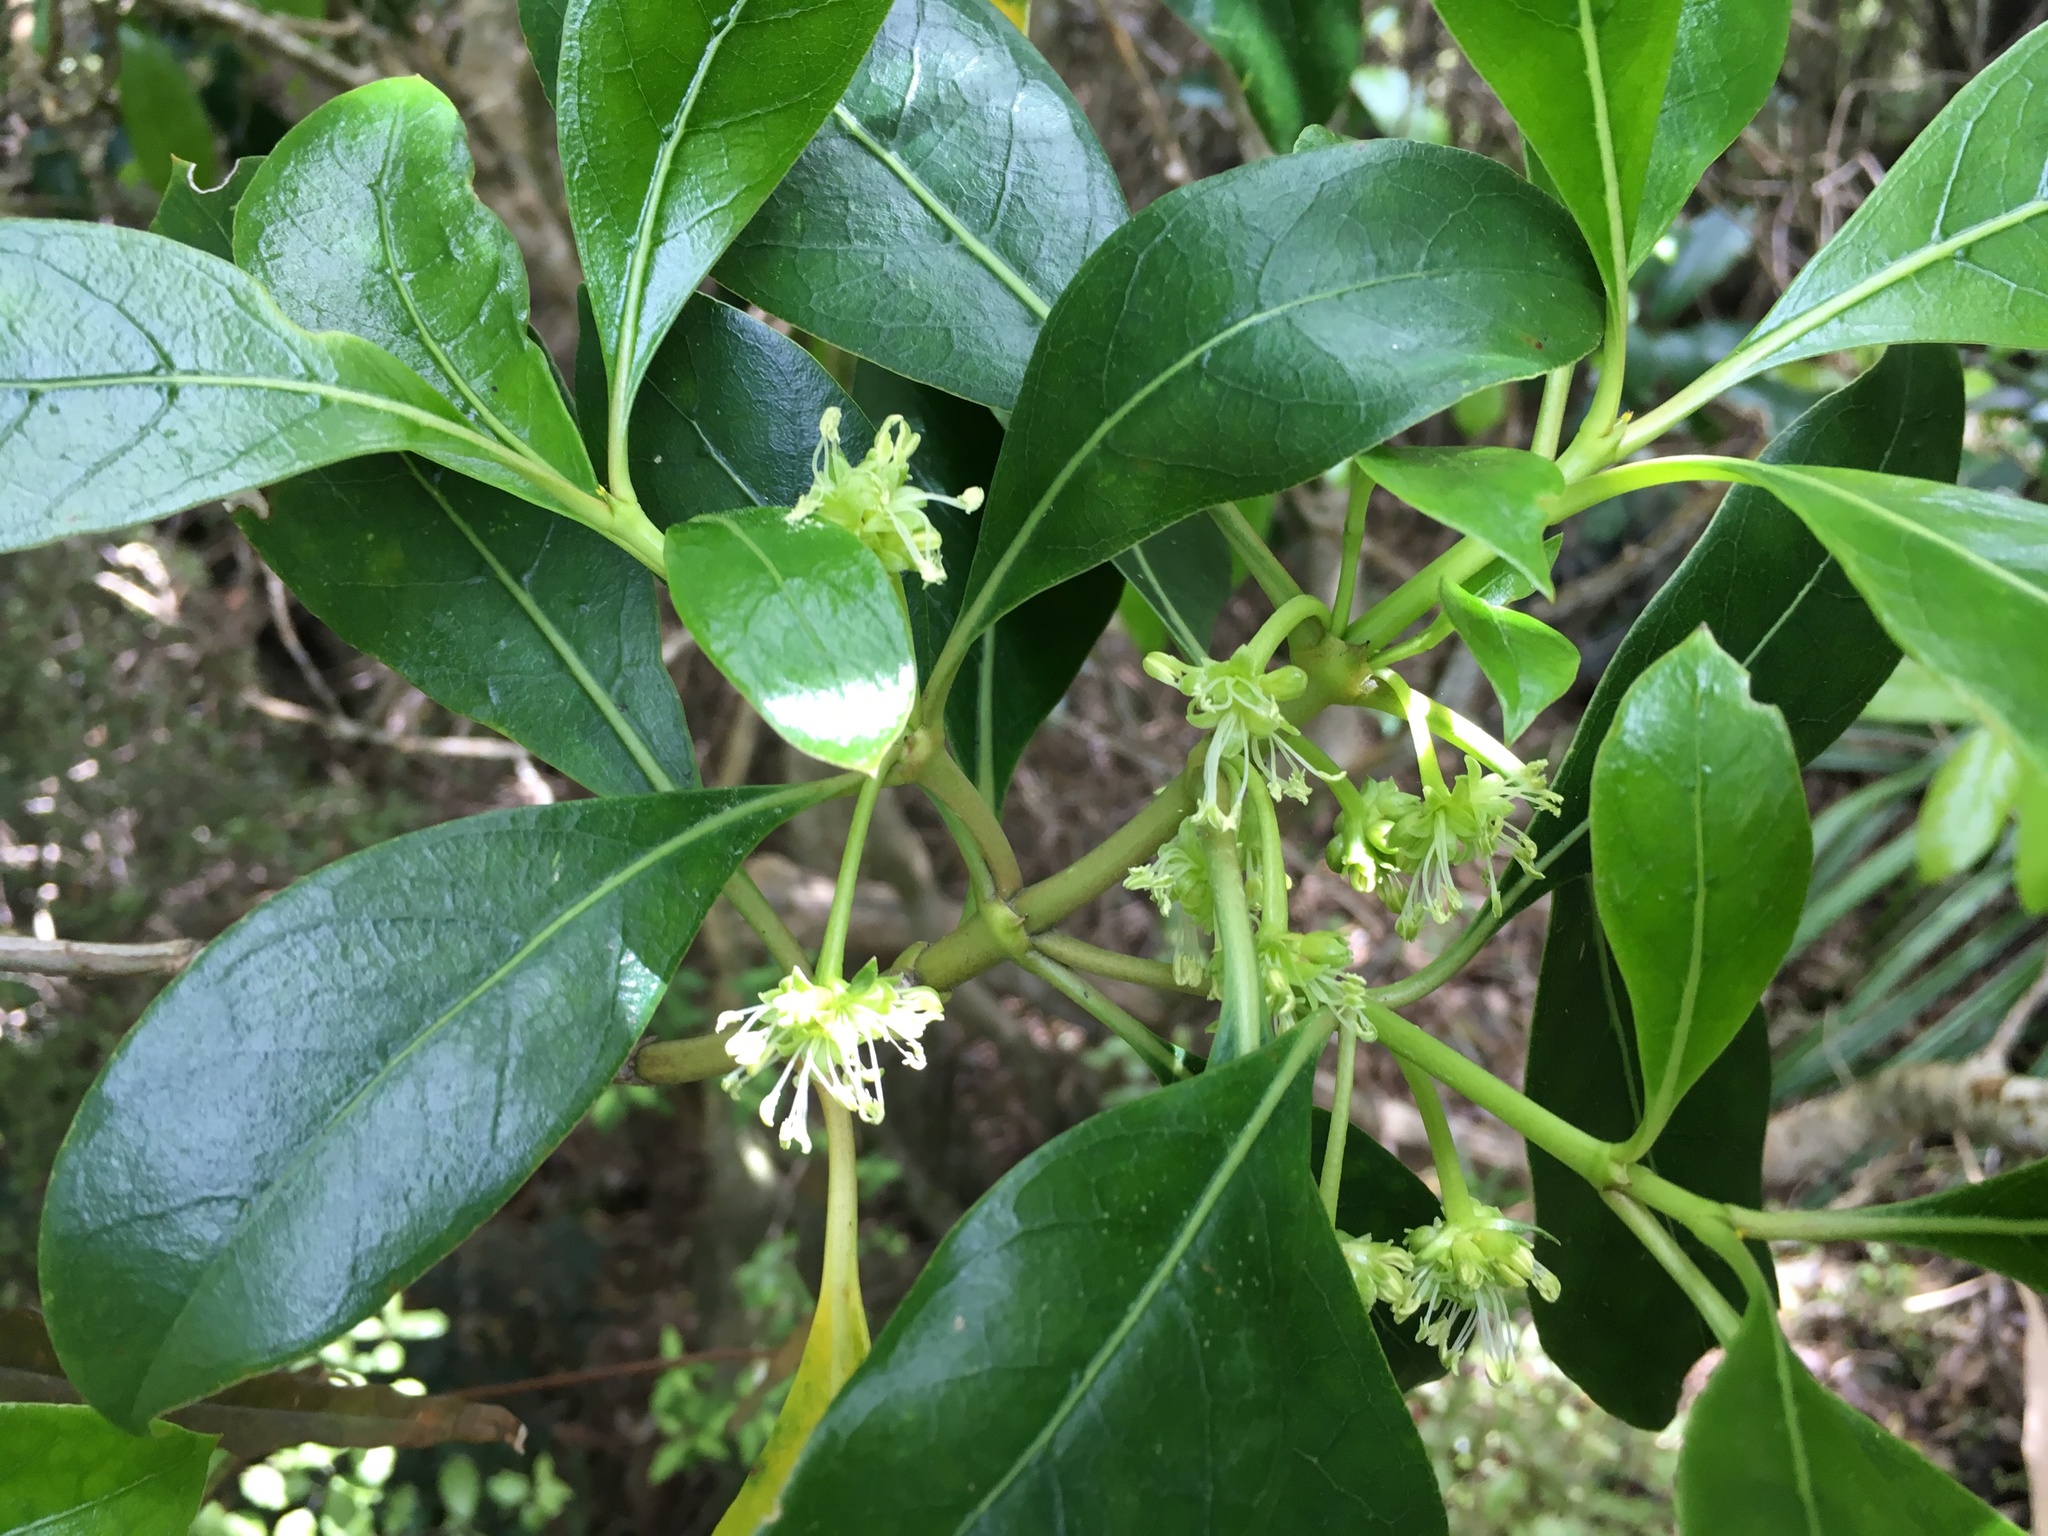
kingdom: Plantae
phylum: Tracheophyta
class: Magnoliopsida
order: Gentianales
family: Rubiaceae
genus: Coprosma
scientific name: Coprosma lucida
